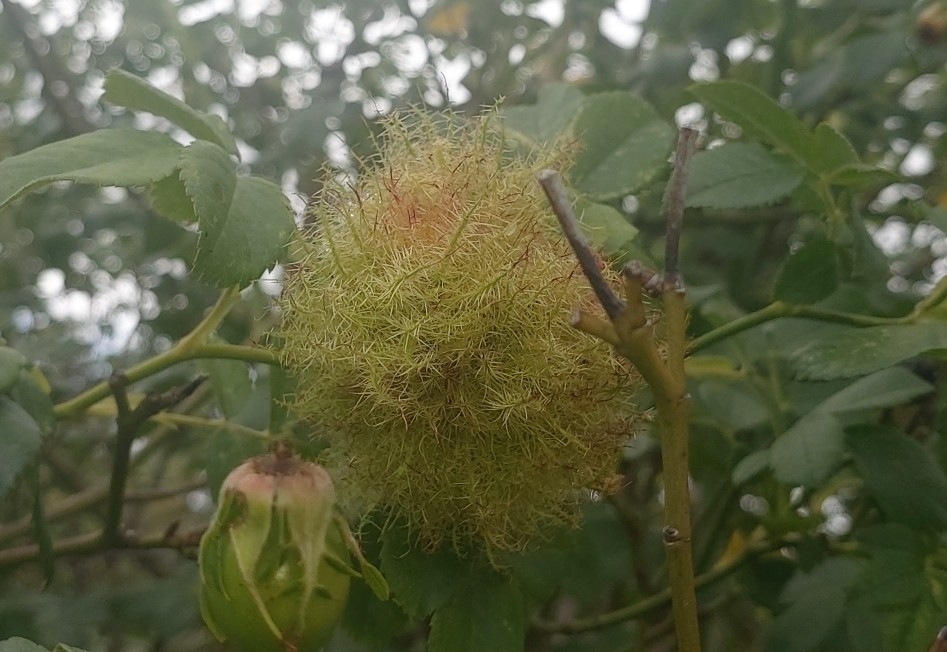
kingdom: Animalia
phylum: Arthropoda
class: Insecta
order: Hymenoptera
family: Cynipidae
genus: Diplolepis
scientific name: Diplolepis rosae
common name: Bedeguar gall
